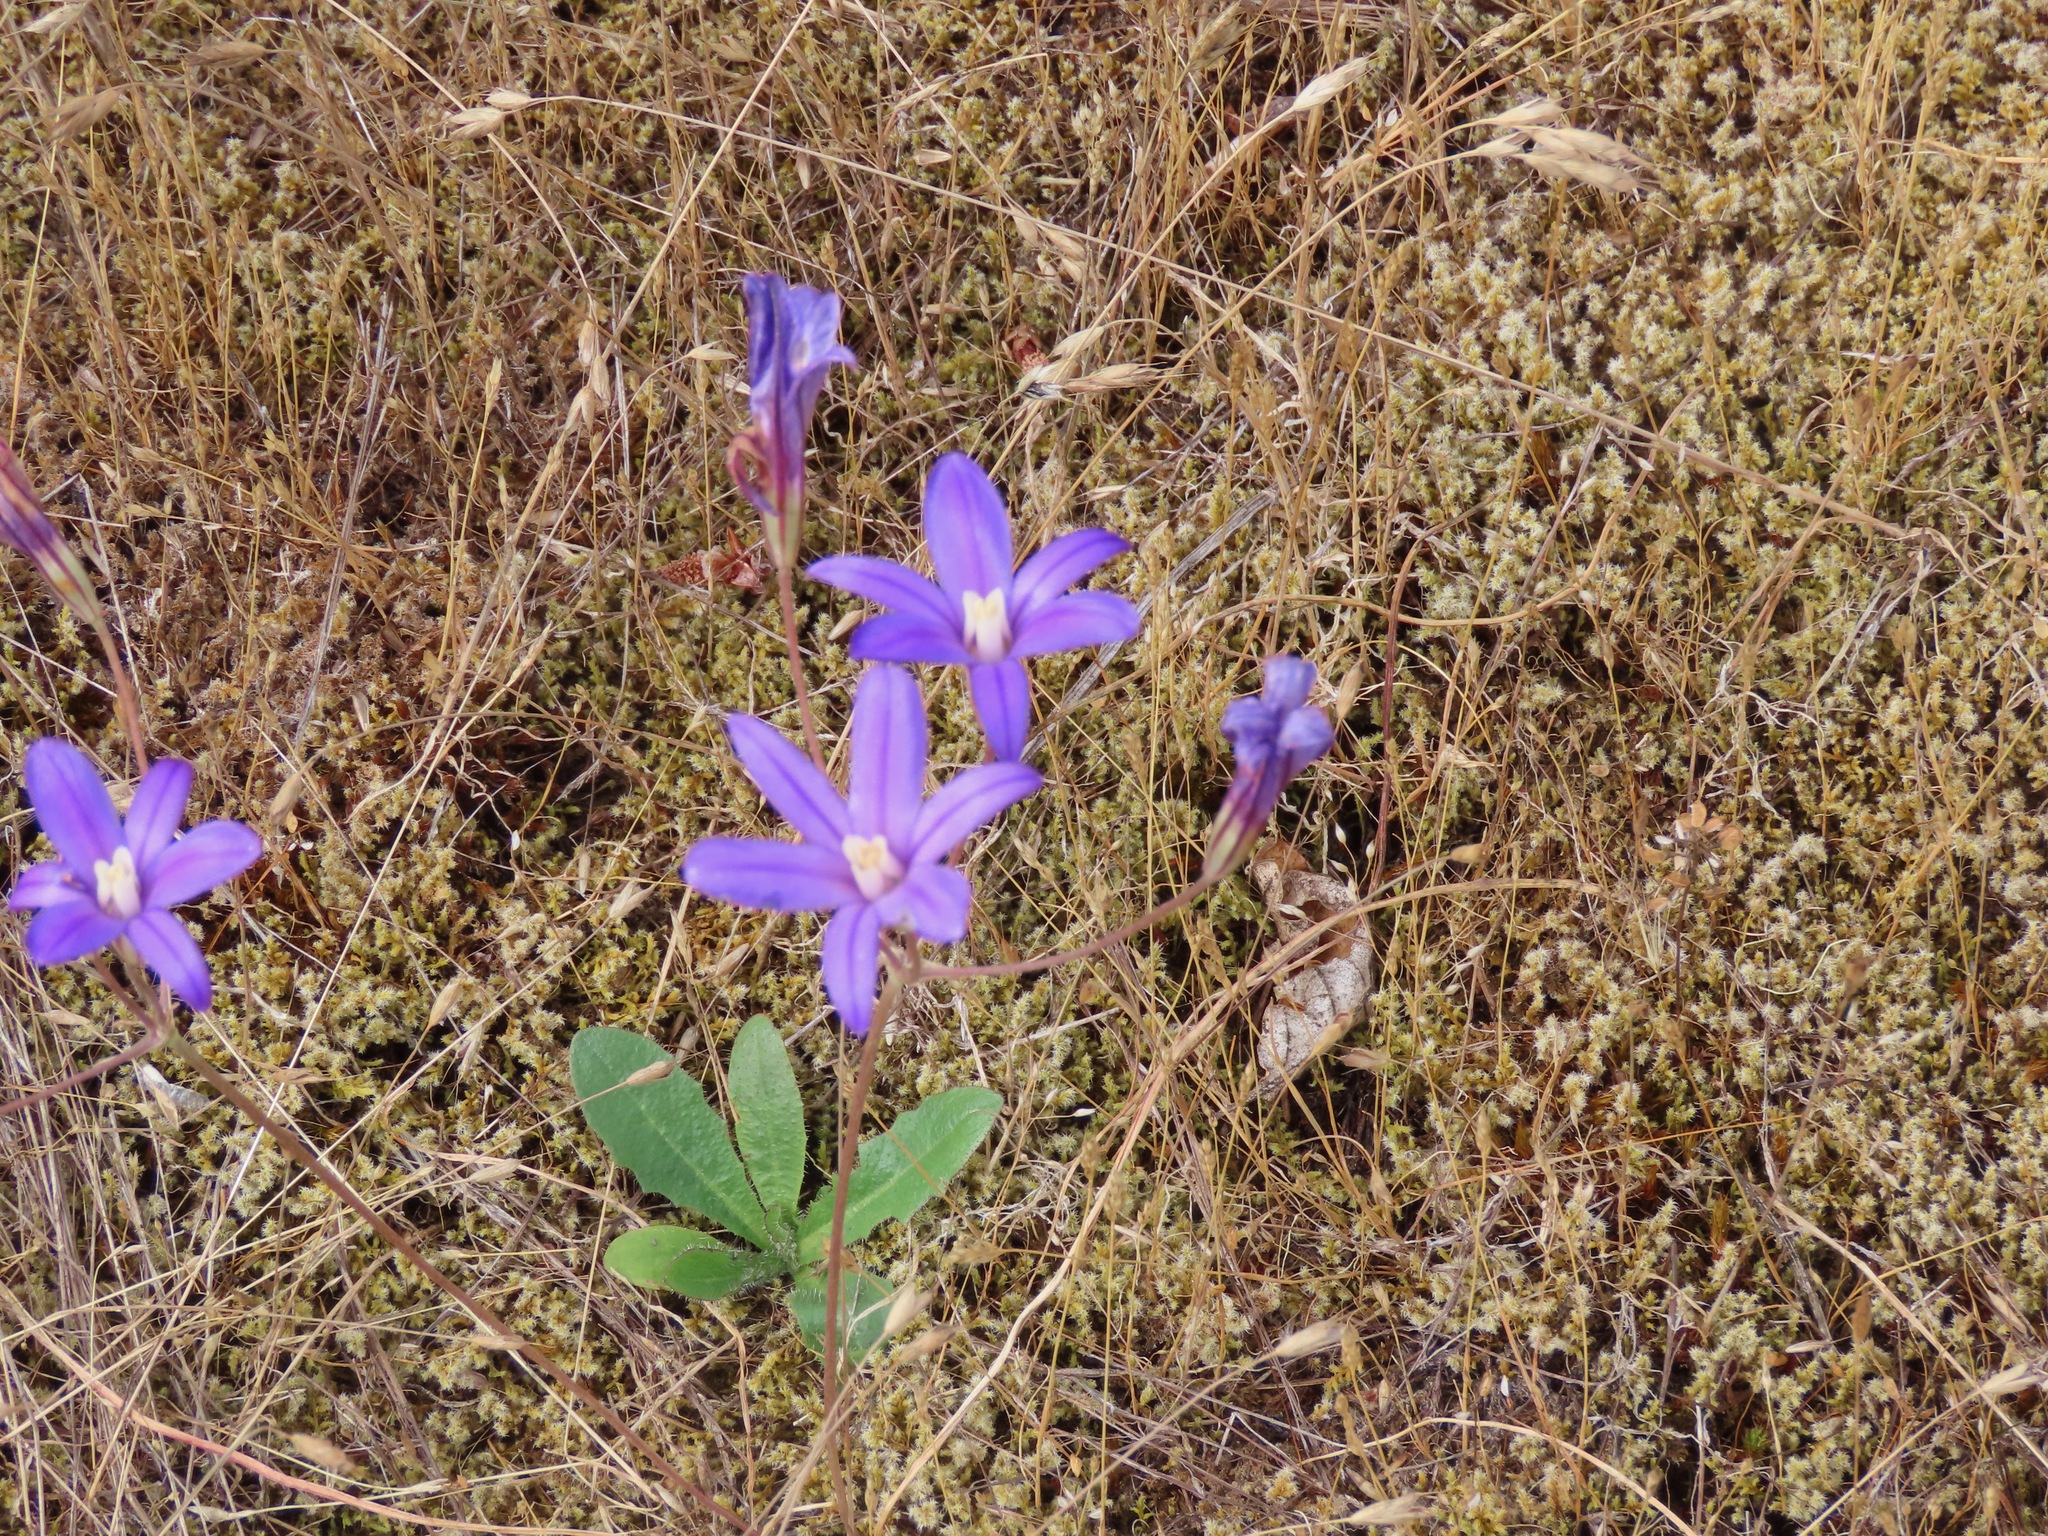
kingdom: Plantae
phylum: Tracheophyta
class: Liliopsida
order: Asparagales
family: Asparagaceae
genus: Brodiaea
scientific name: Brodiaea coronaria
